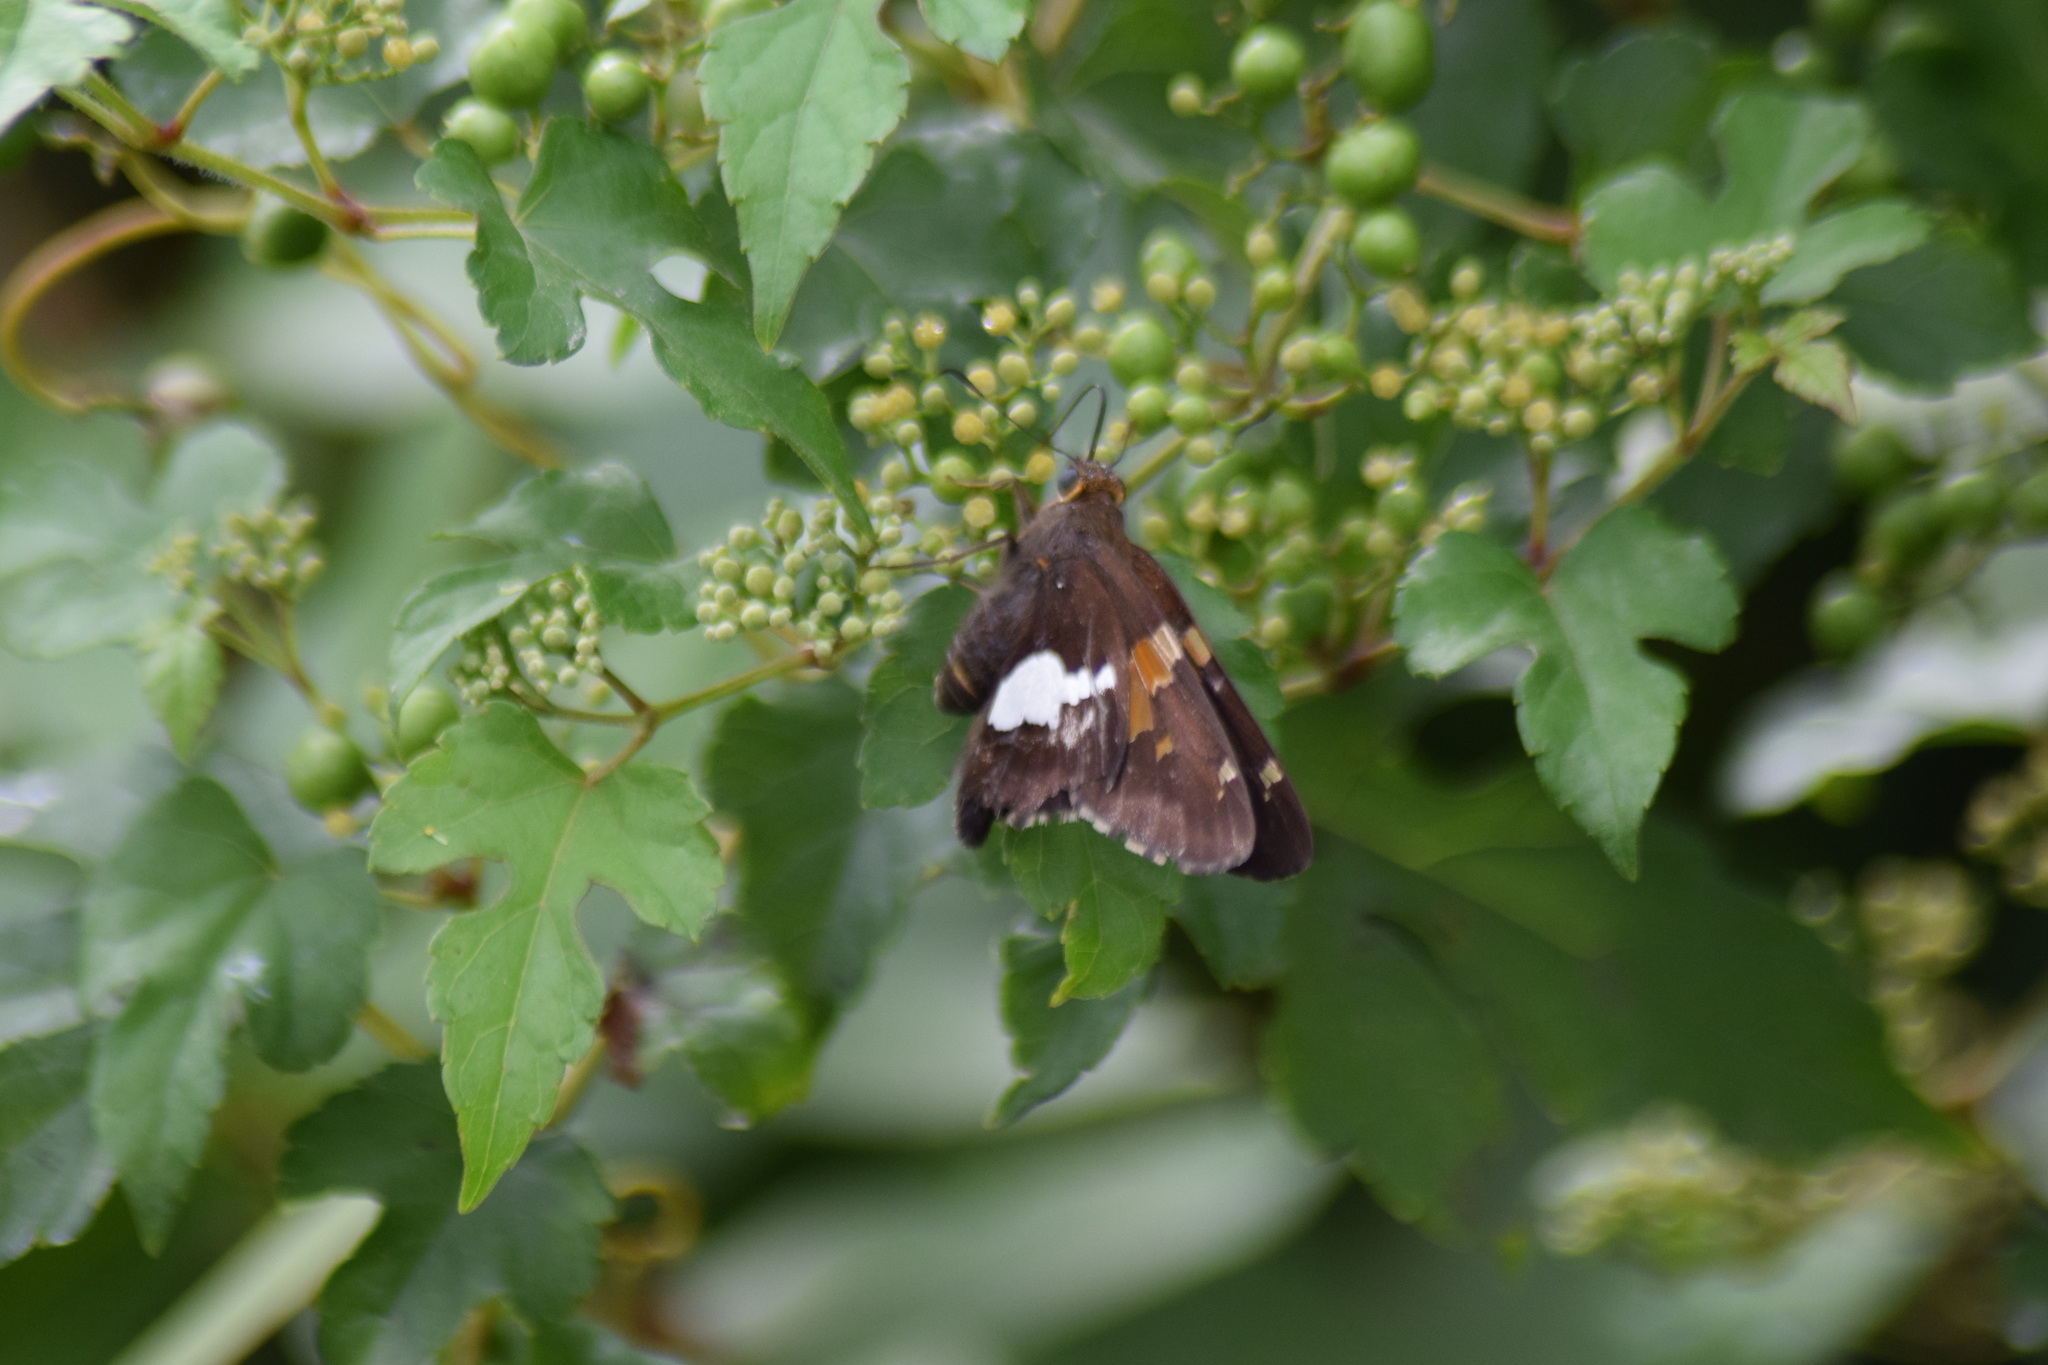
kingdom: Animalia
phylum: Arthropoda
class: Insecta
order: Lepidoptera
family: Hesperiidae
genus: Epargyreus
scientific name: Epargyreus clarus
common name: Silver-spotted skipper
